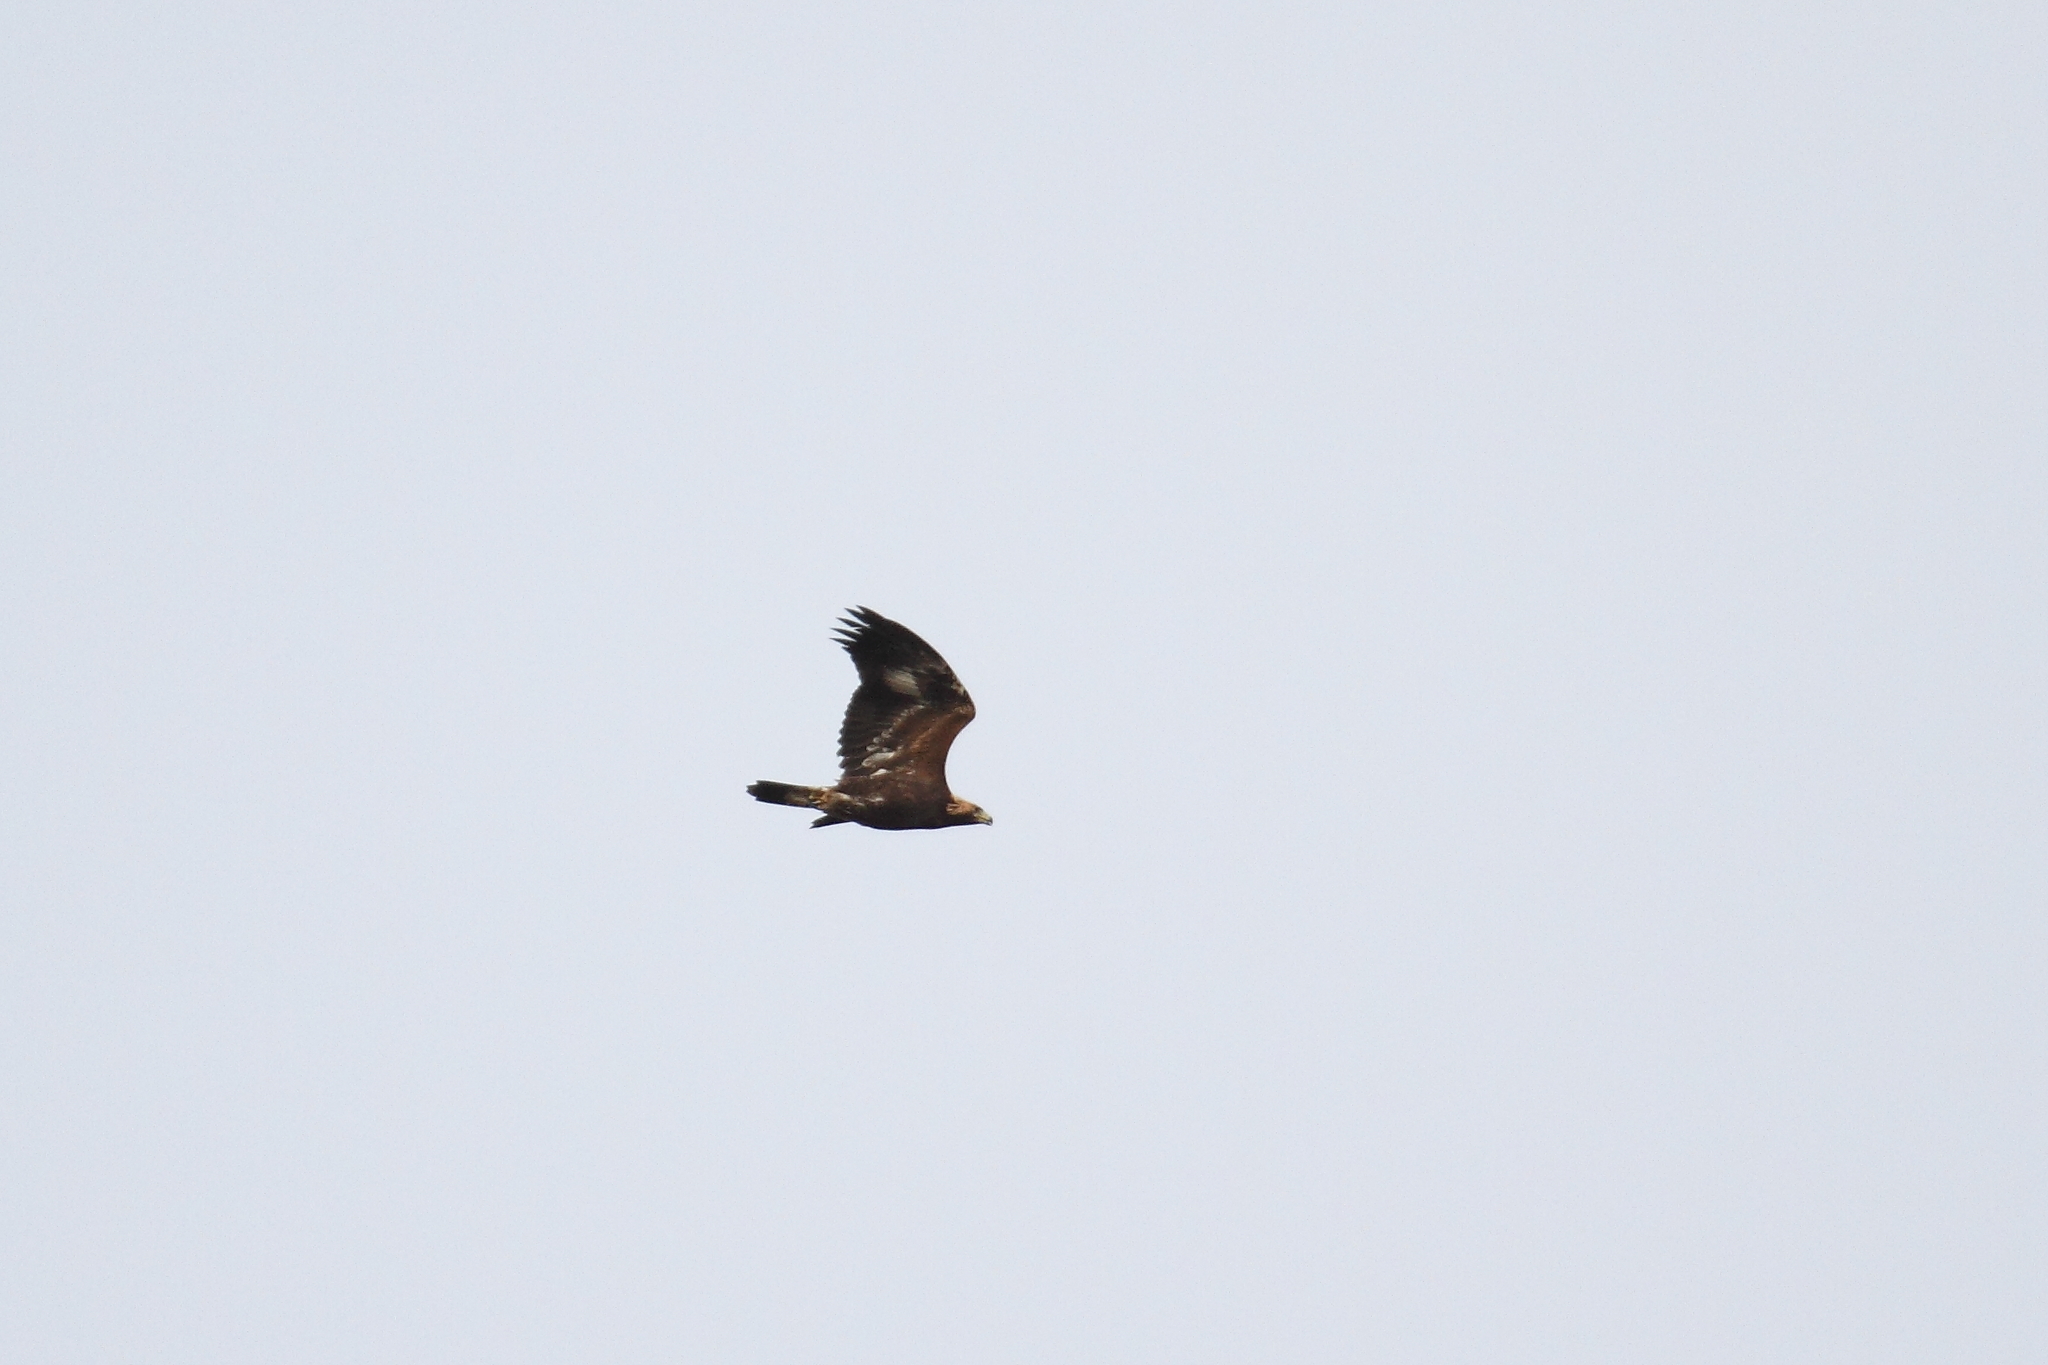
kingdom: Animalia
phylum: Chordata
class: Aves
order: Accipitriformes
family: Accipitridae
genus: Aquila
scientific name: Aquila chrysaetos
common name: Golden eagle
